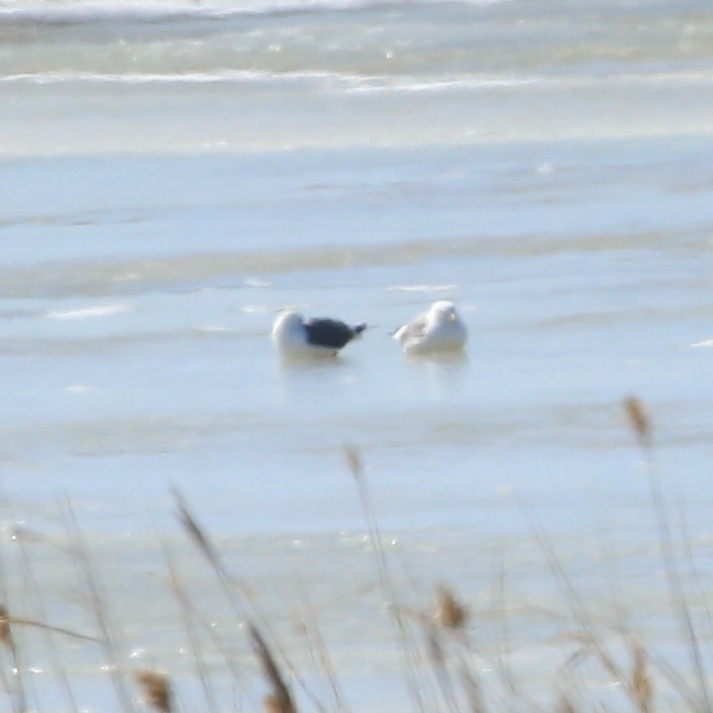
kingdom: Animalia
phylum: Chordata
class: Aves
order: Charadriiformes
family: Laridae
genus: Larus
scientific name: Larus canus
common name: Mew gull
